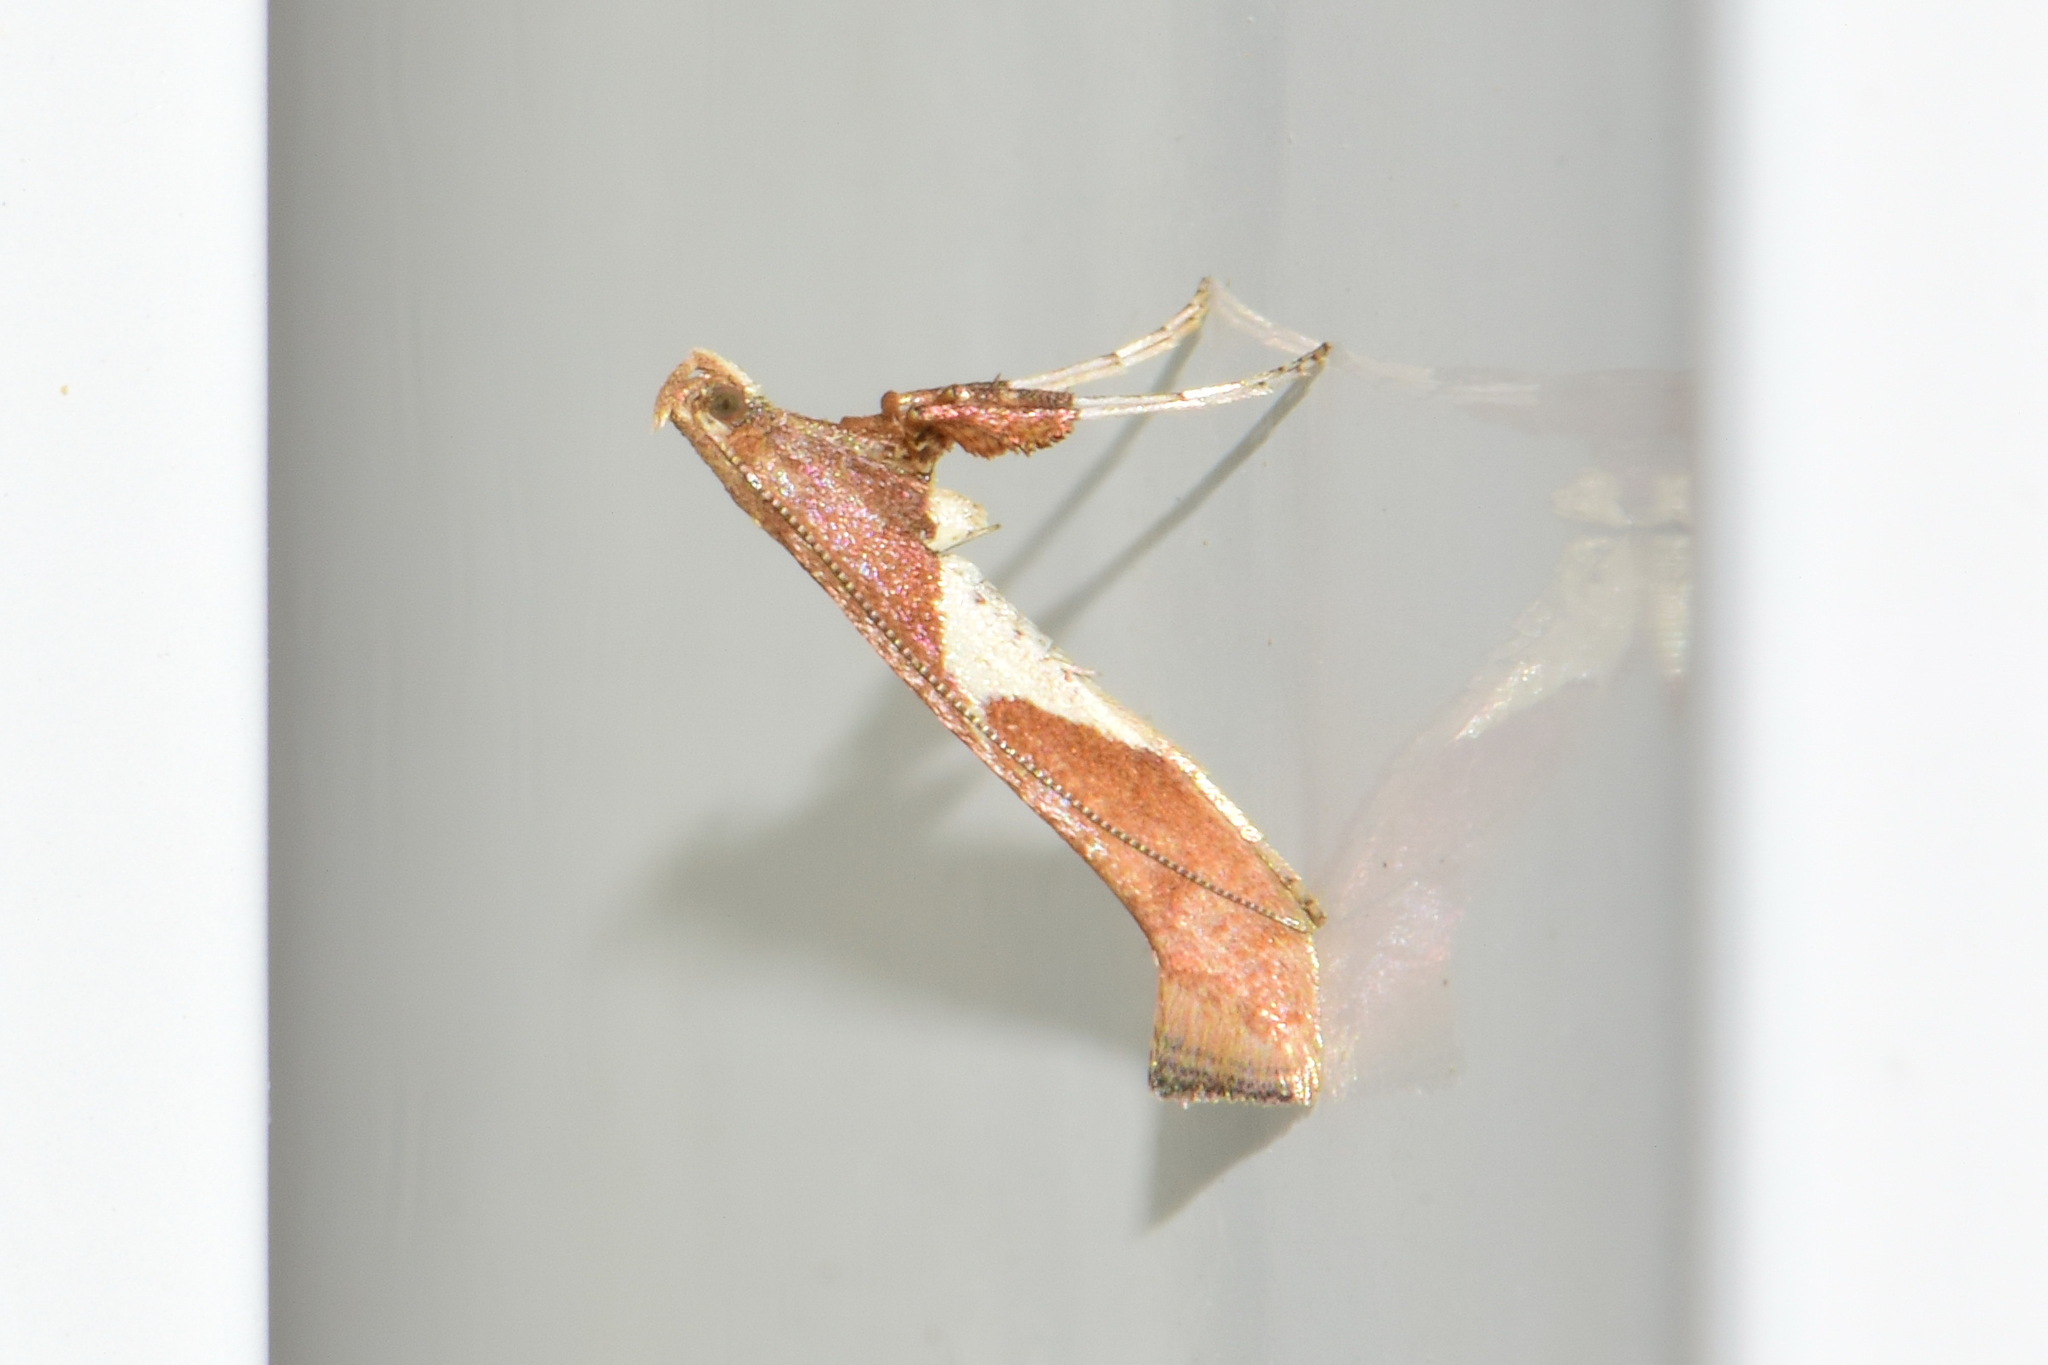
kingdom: Animalia
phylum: Arthropoda
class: Insecta
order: Lepidoptera
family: Gracillariidae
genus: Caloptilia
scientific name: Caloptilia stigmatella
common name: White-triangle slender
